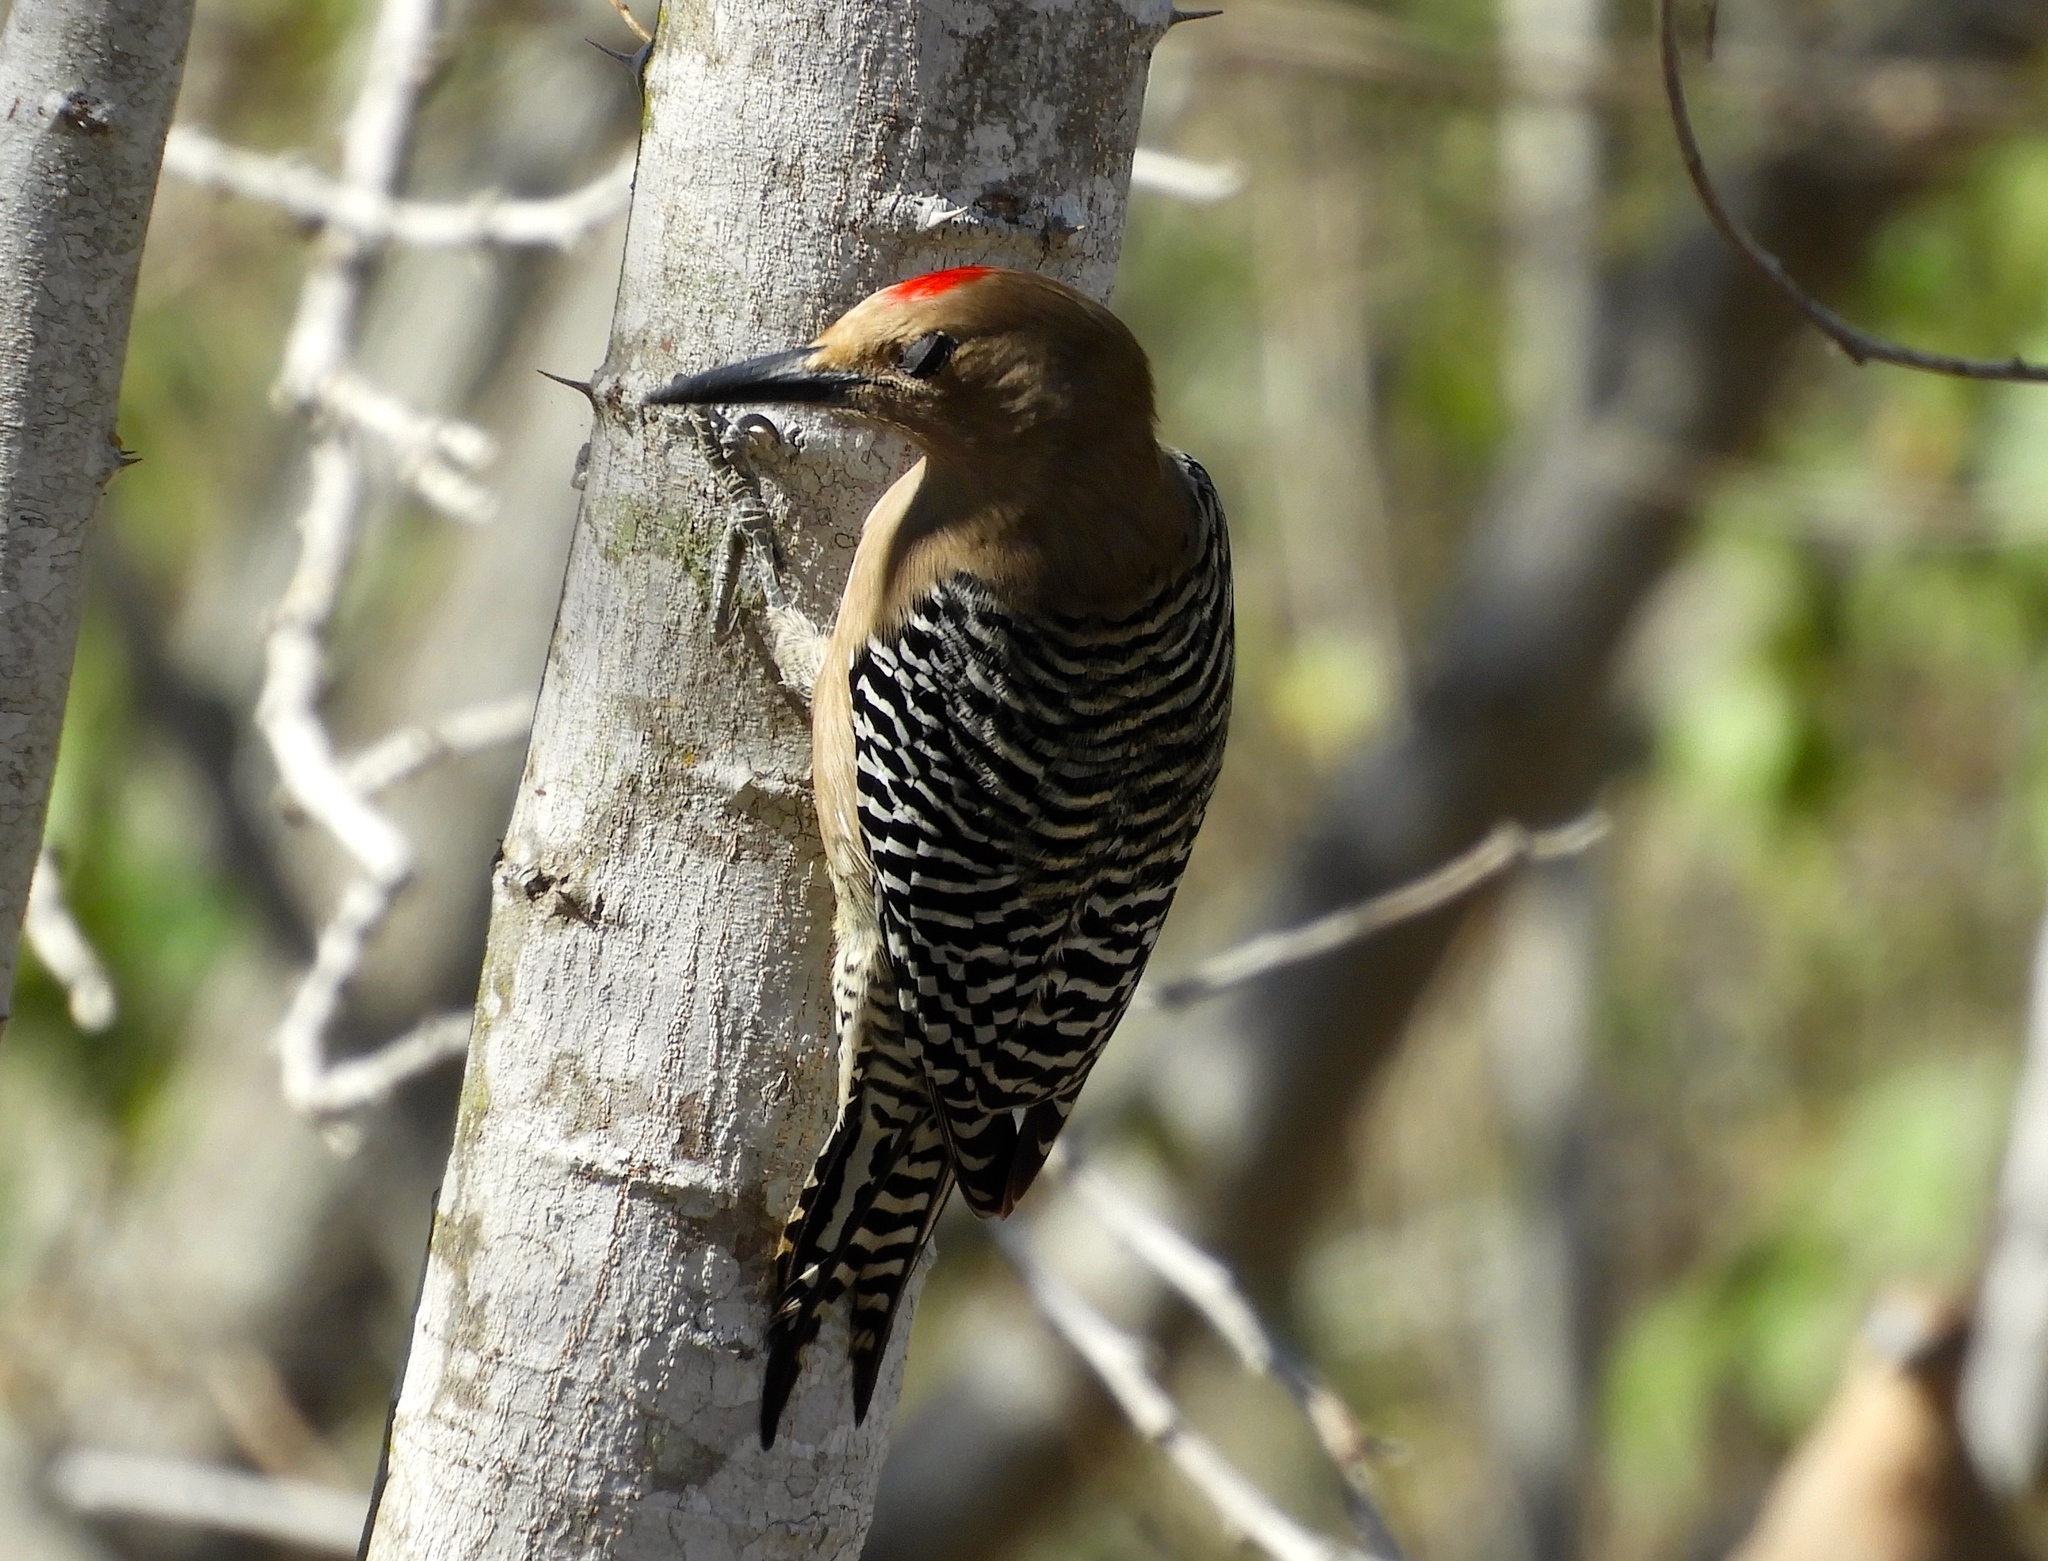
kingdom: Animalia
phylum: Chordata
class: Aves
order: Piciformes
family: Picidae
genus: Melanerpes
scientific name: Melanerpes uropygialis
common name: Gila woodpecker
